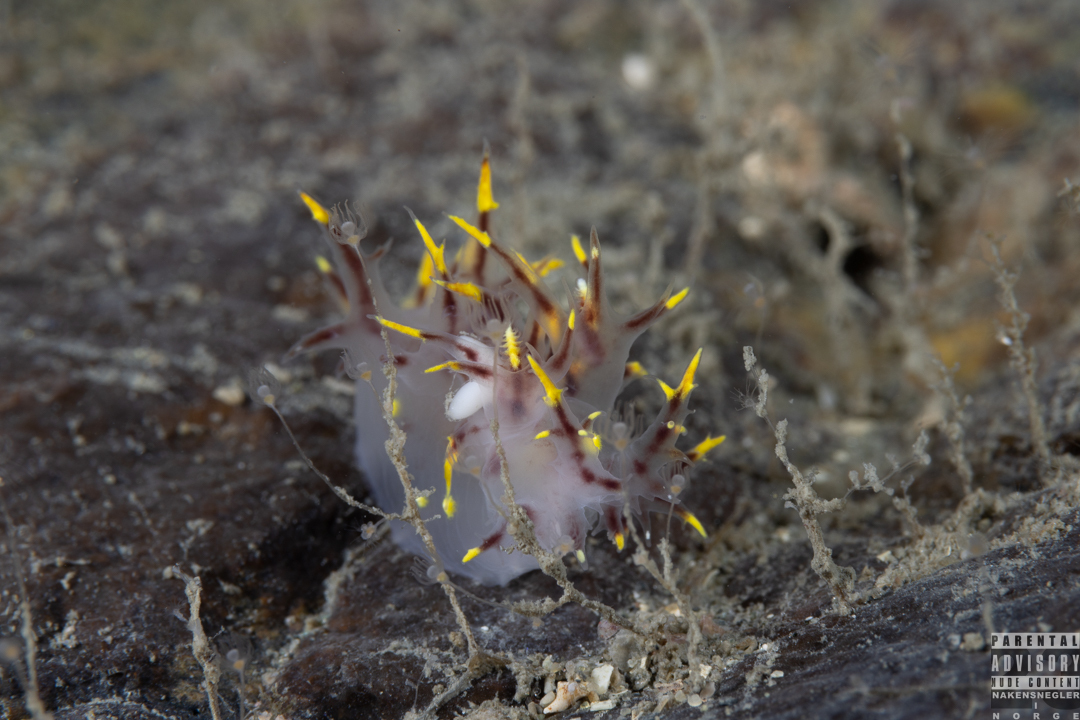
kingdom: Animalia
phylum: Mollusca
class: Gastropoda
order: Nudibranchia
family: Dendronotidae
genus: Dendronotus
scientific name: Dendronotus arcticus
